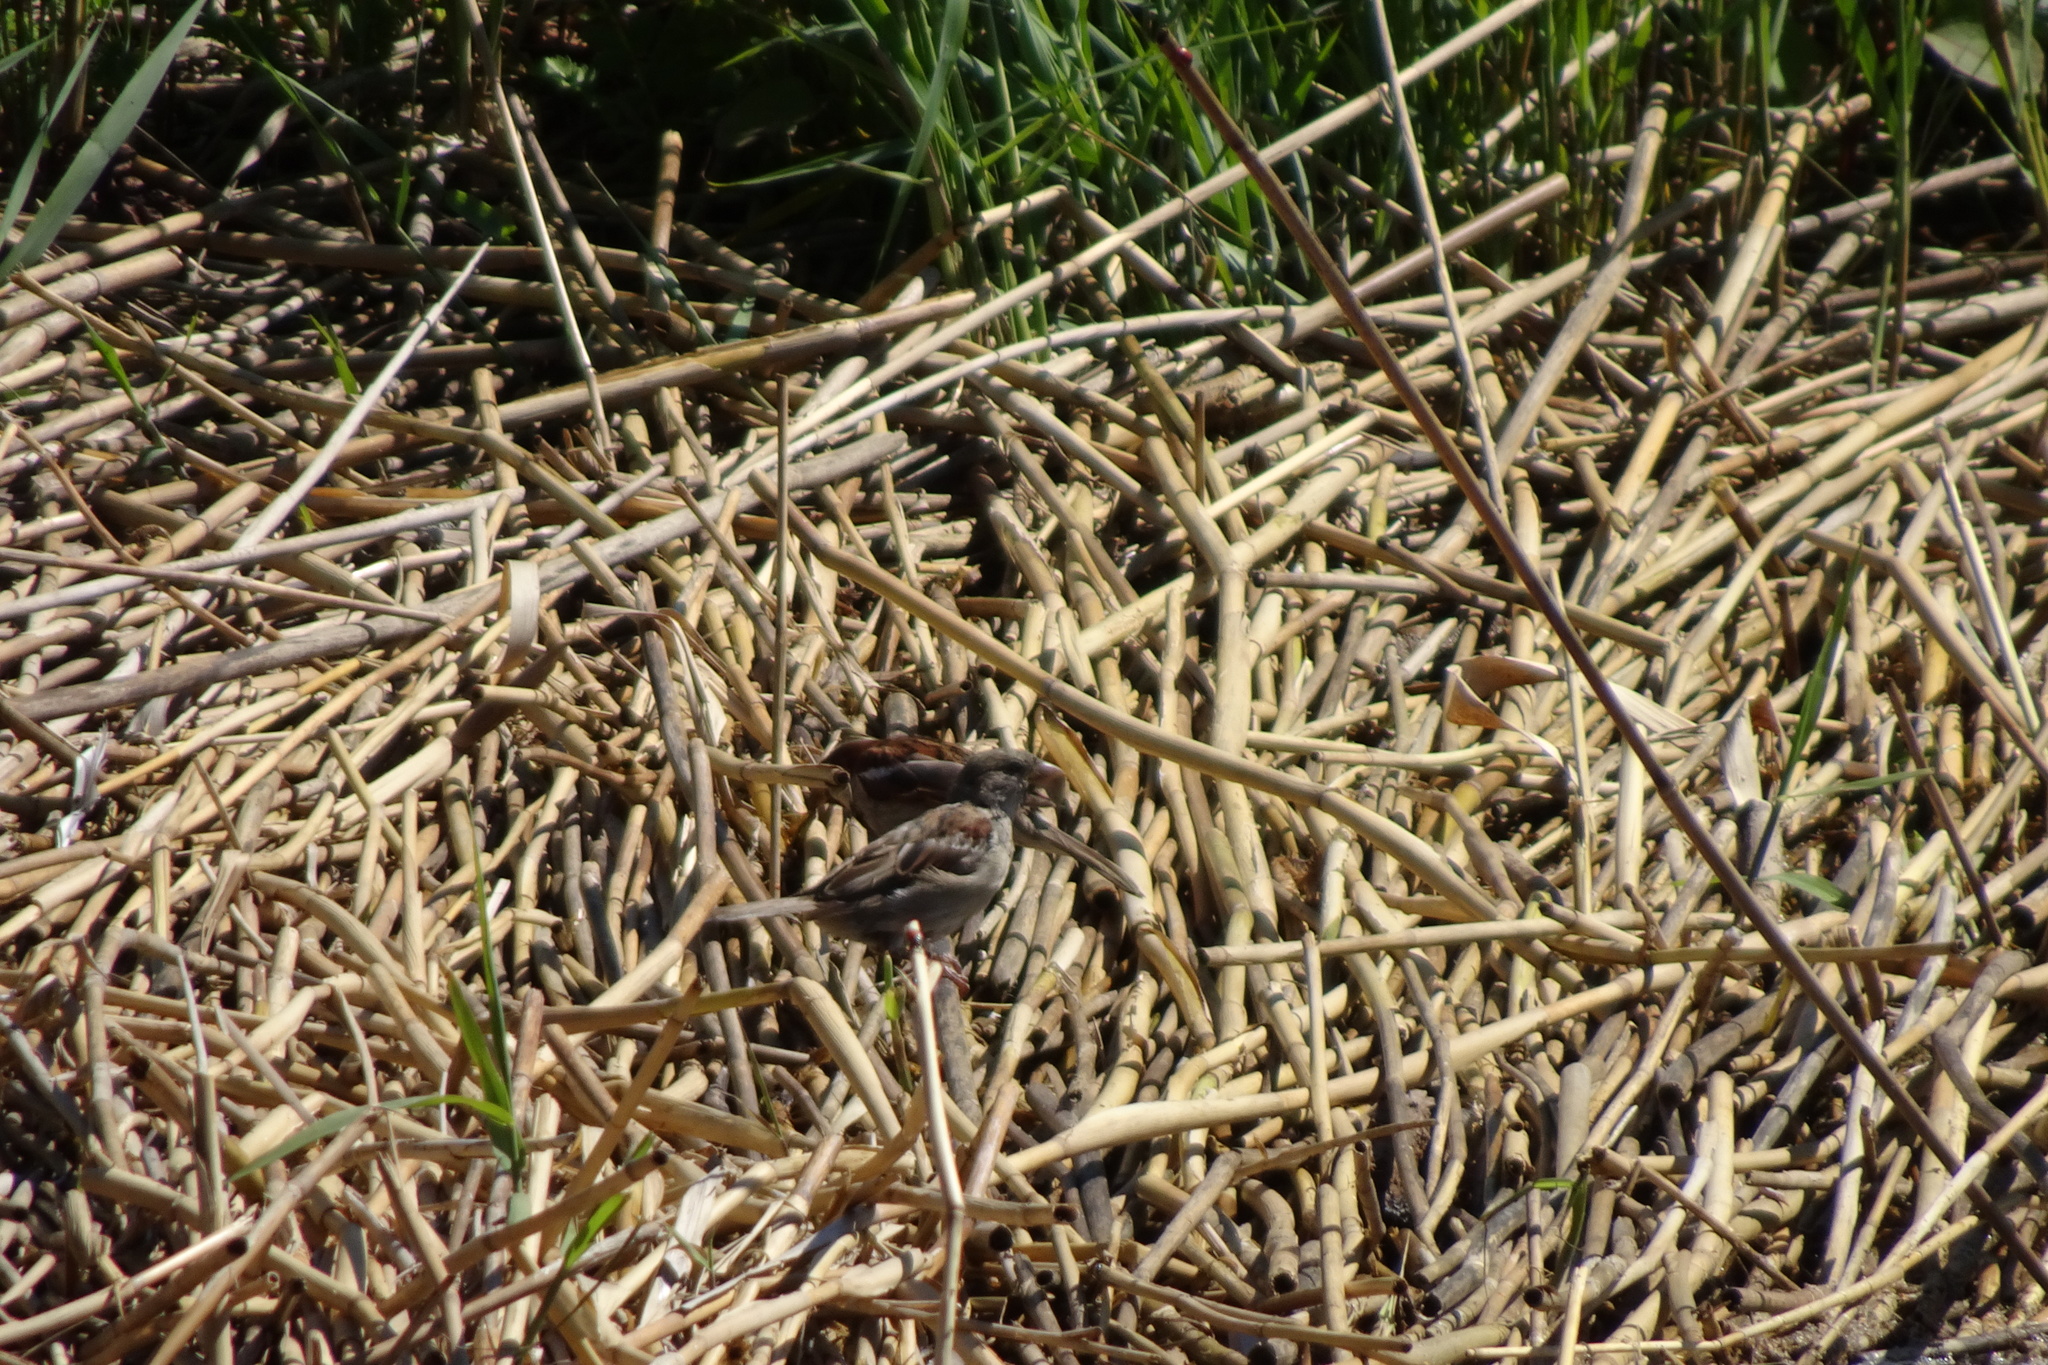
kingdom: Animalia
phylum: Chordata
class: Aves
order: Passeriformes
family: Passeridae
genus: Passer
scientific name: Passer domesticus
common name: House sparrow
